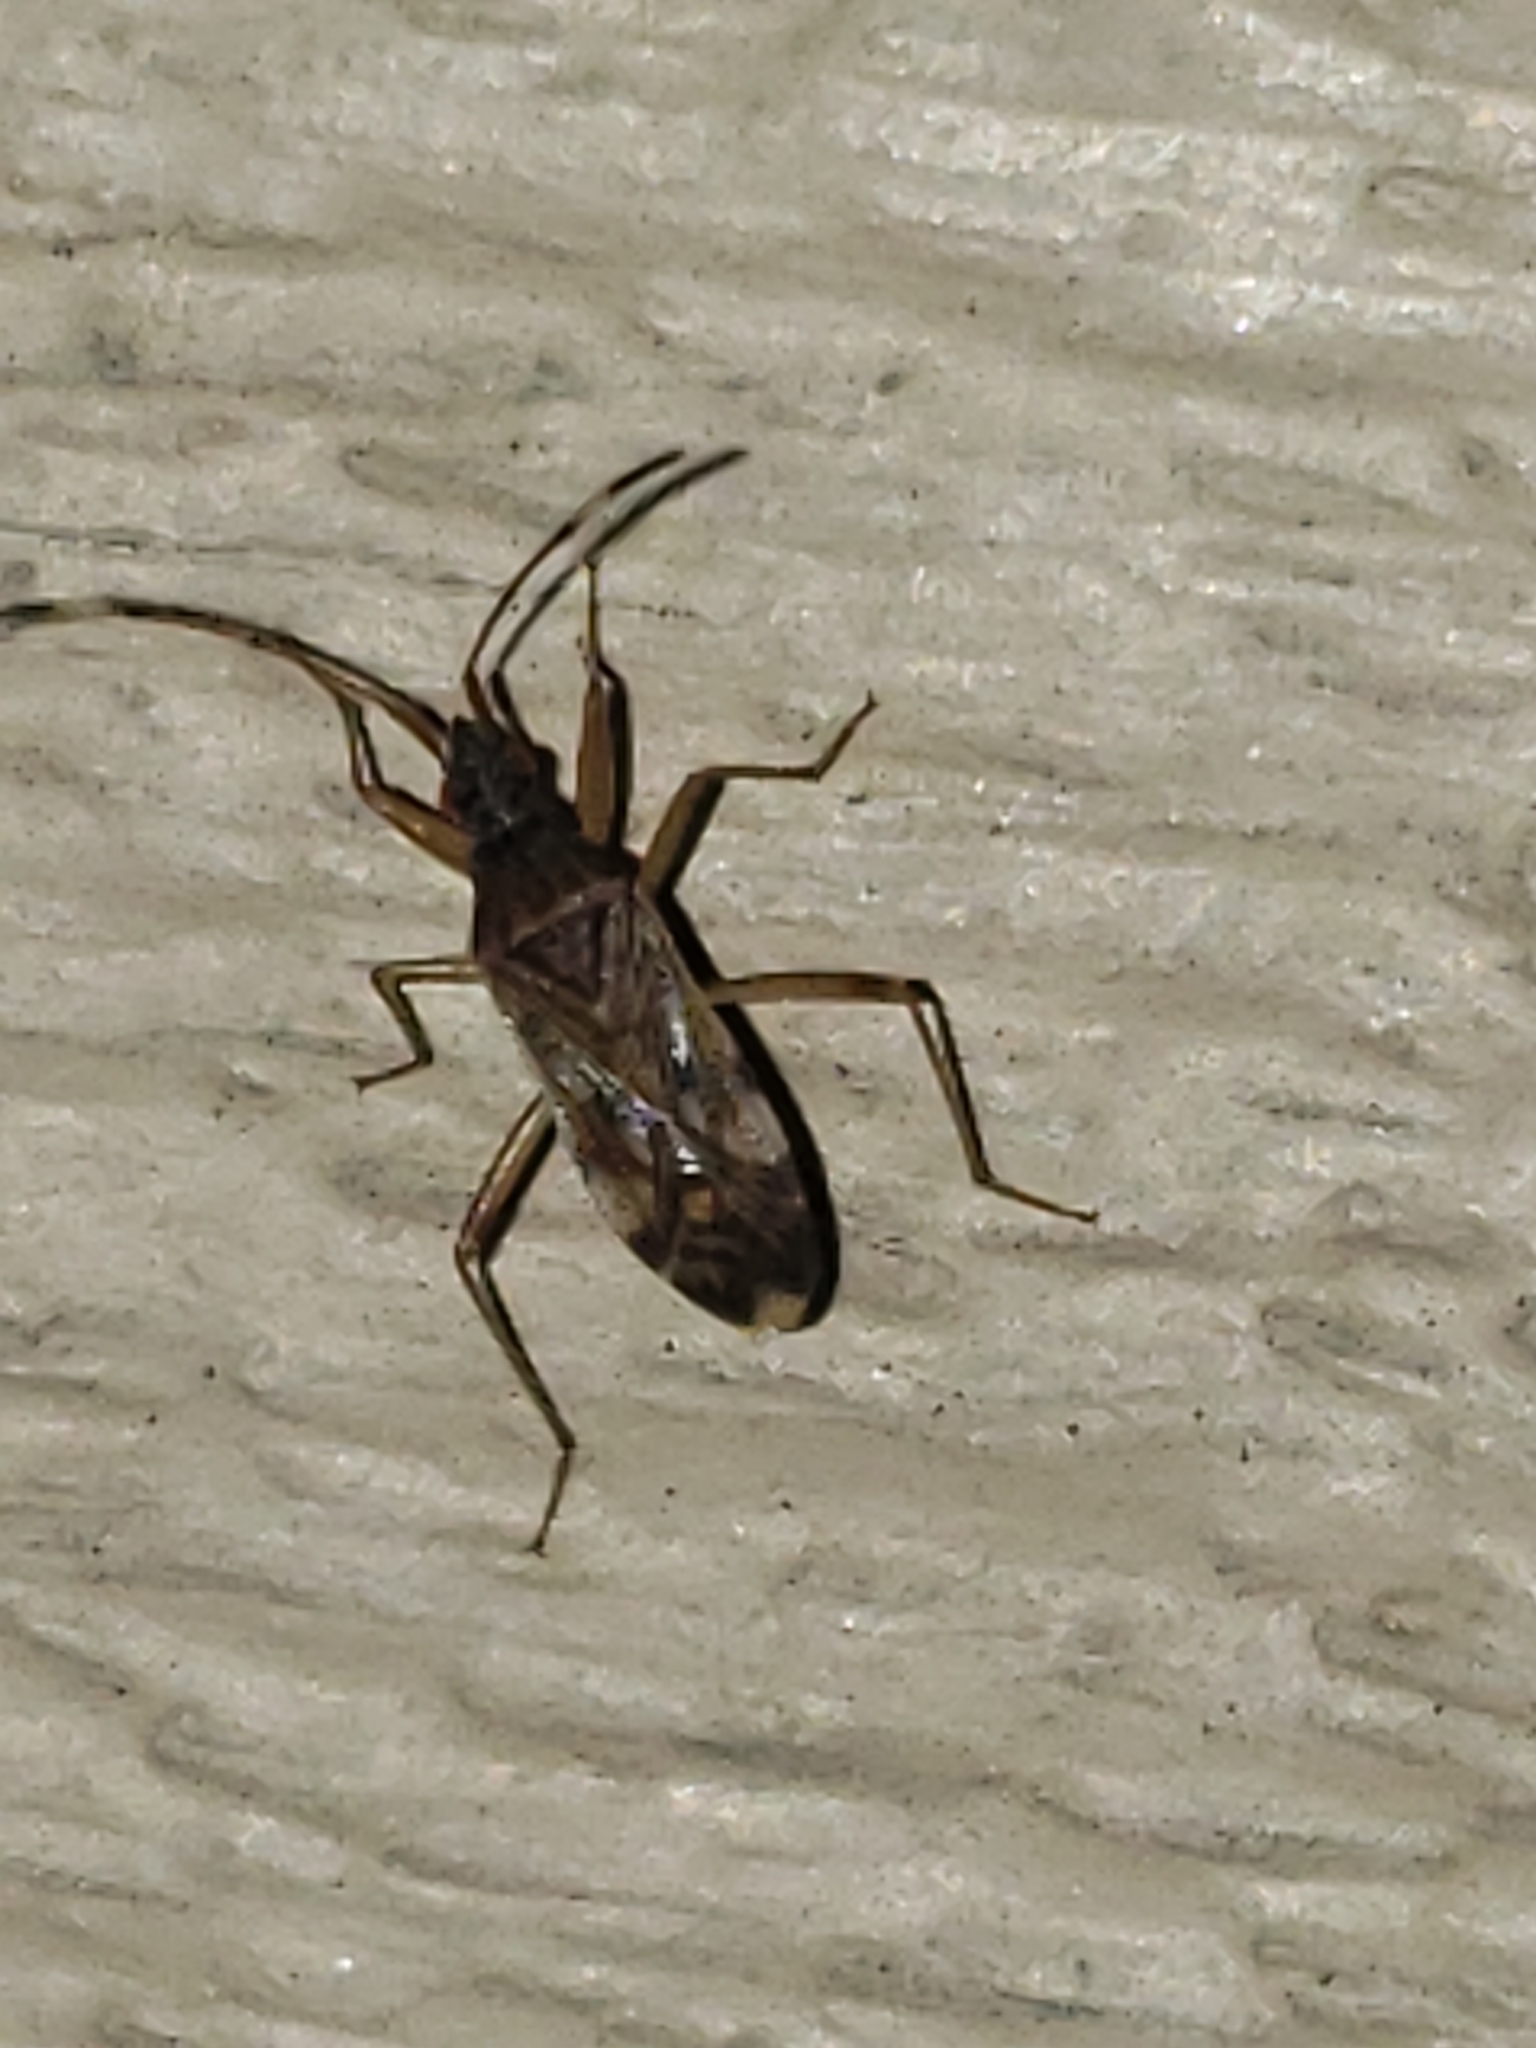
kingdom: Animalia
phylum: Arthropoda
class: Insecta
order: Hemiptera
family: Rhyparochromidae
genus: Ozophora
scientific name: Ozophora picturata
